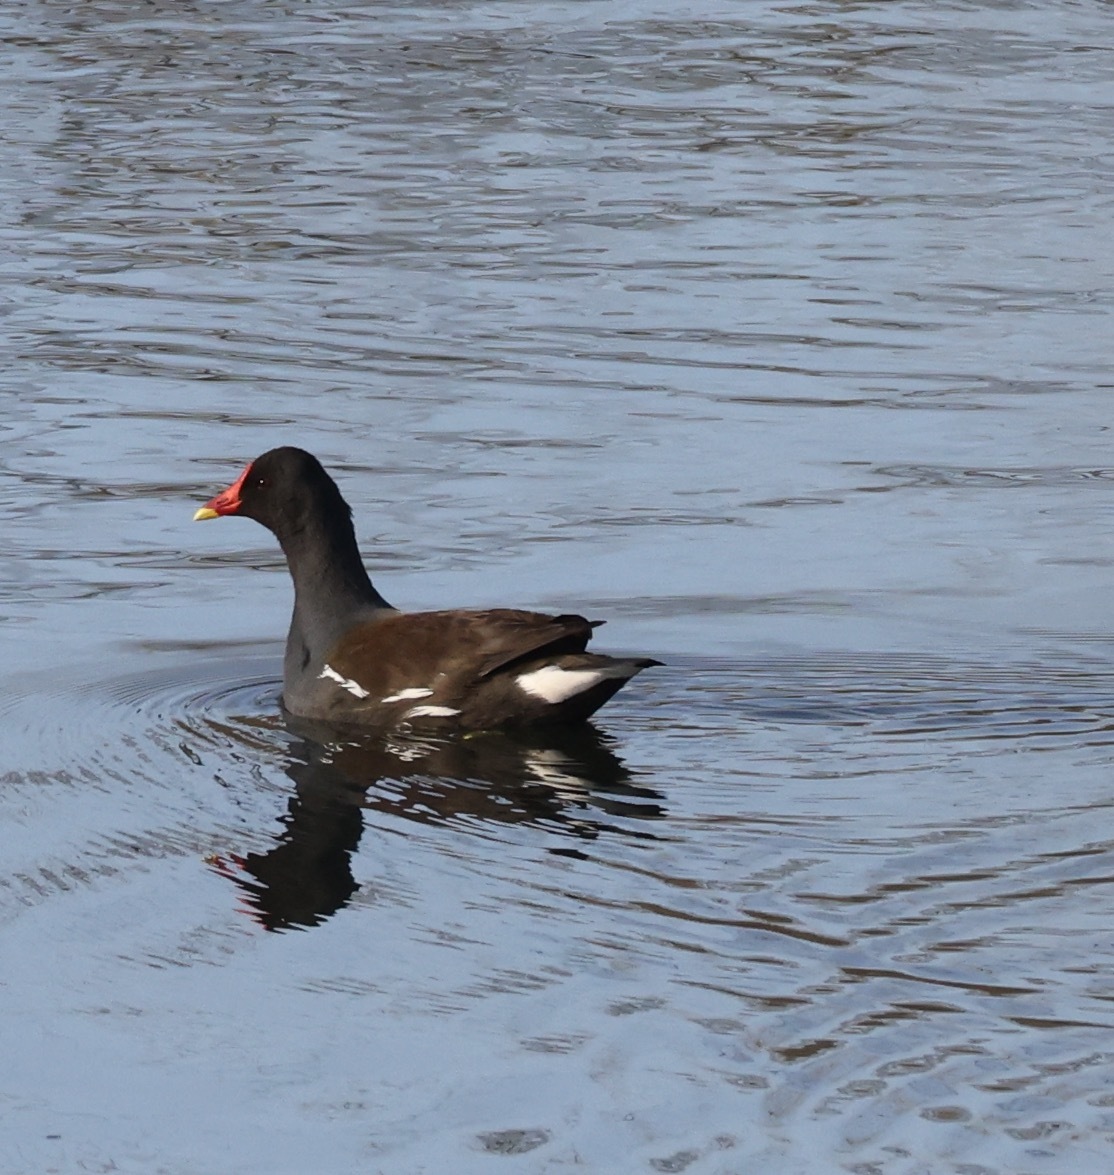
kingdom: Animalia
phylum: Chordata
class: Aves
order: Gruiformes
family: Rallidae
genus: Gallinula
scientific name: Gallinula chloropus
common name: Common moorhen
